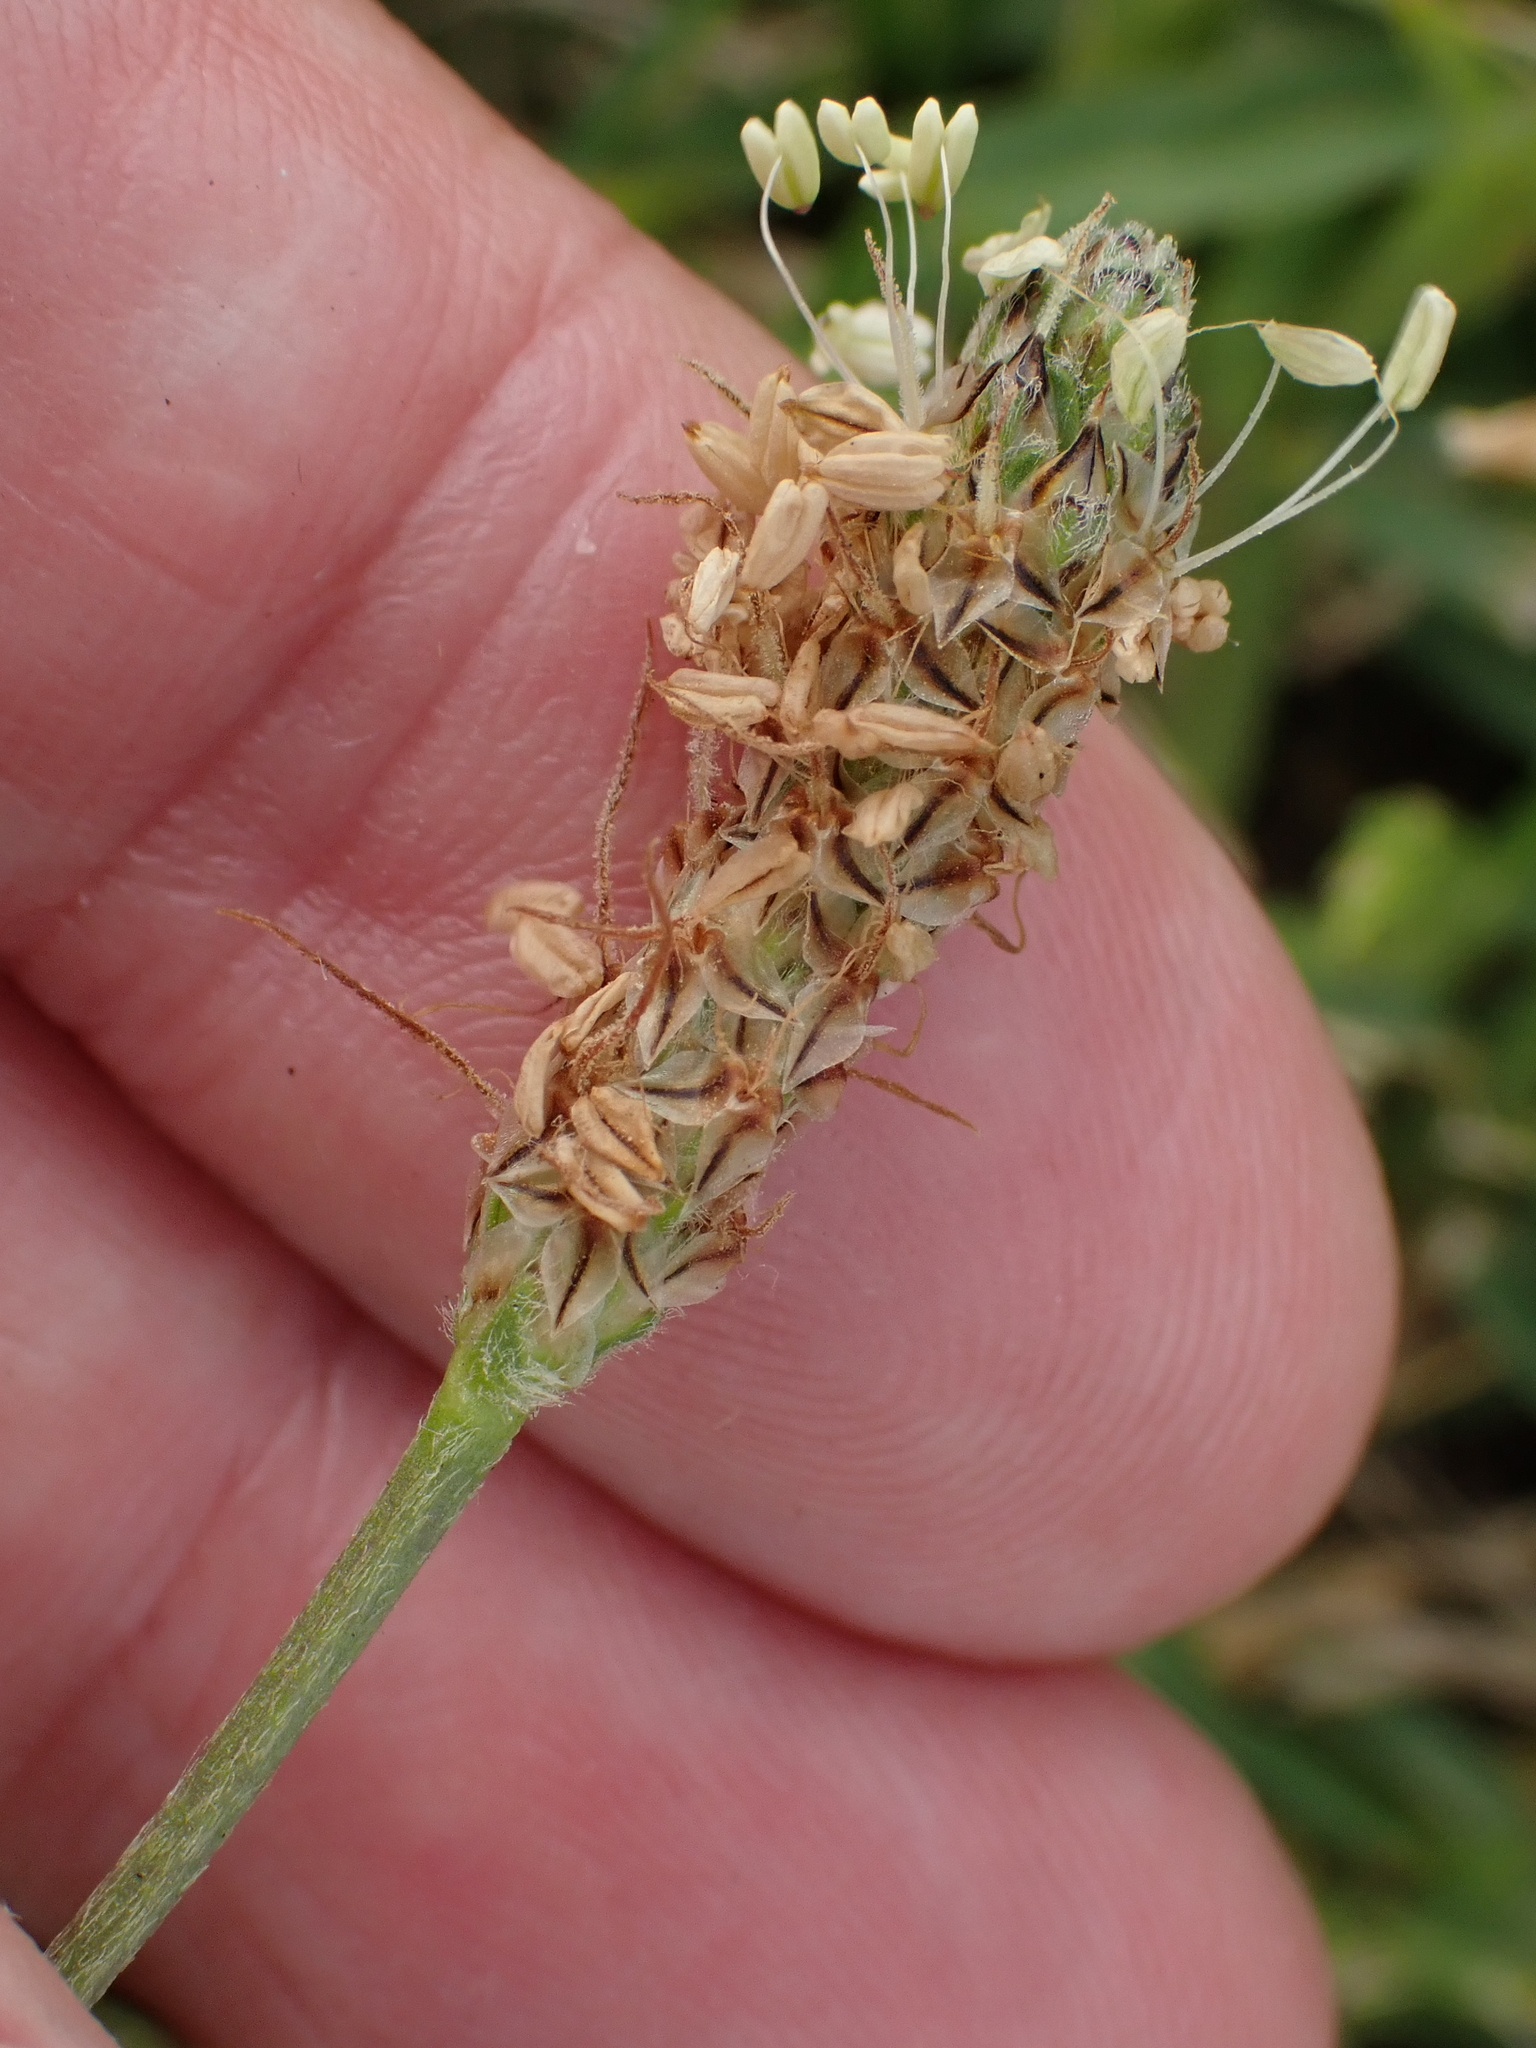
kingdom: Plantae
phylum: Tracheophyta
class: Magnoliopsida
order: Lamiales
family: Plantaginaceae
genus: Plantago
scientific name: Plantago lanceolata
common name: Ribwort plantain
